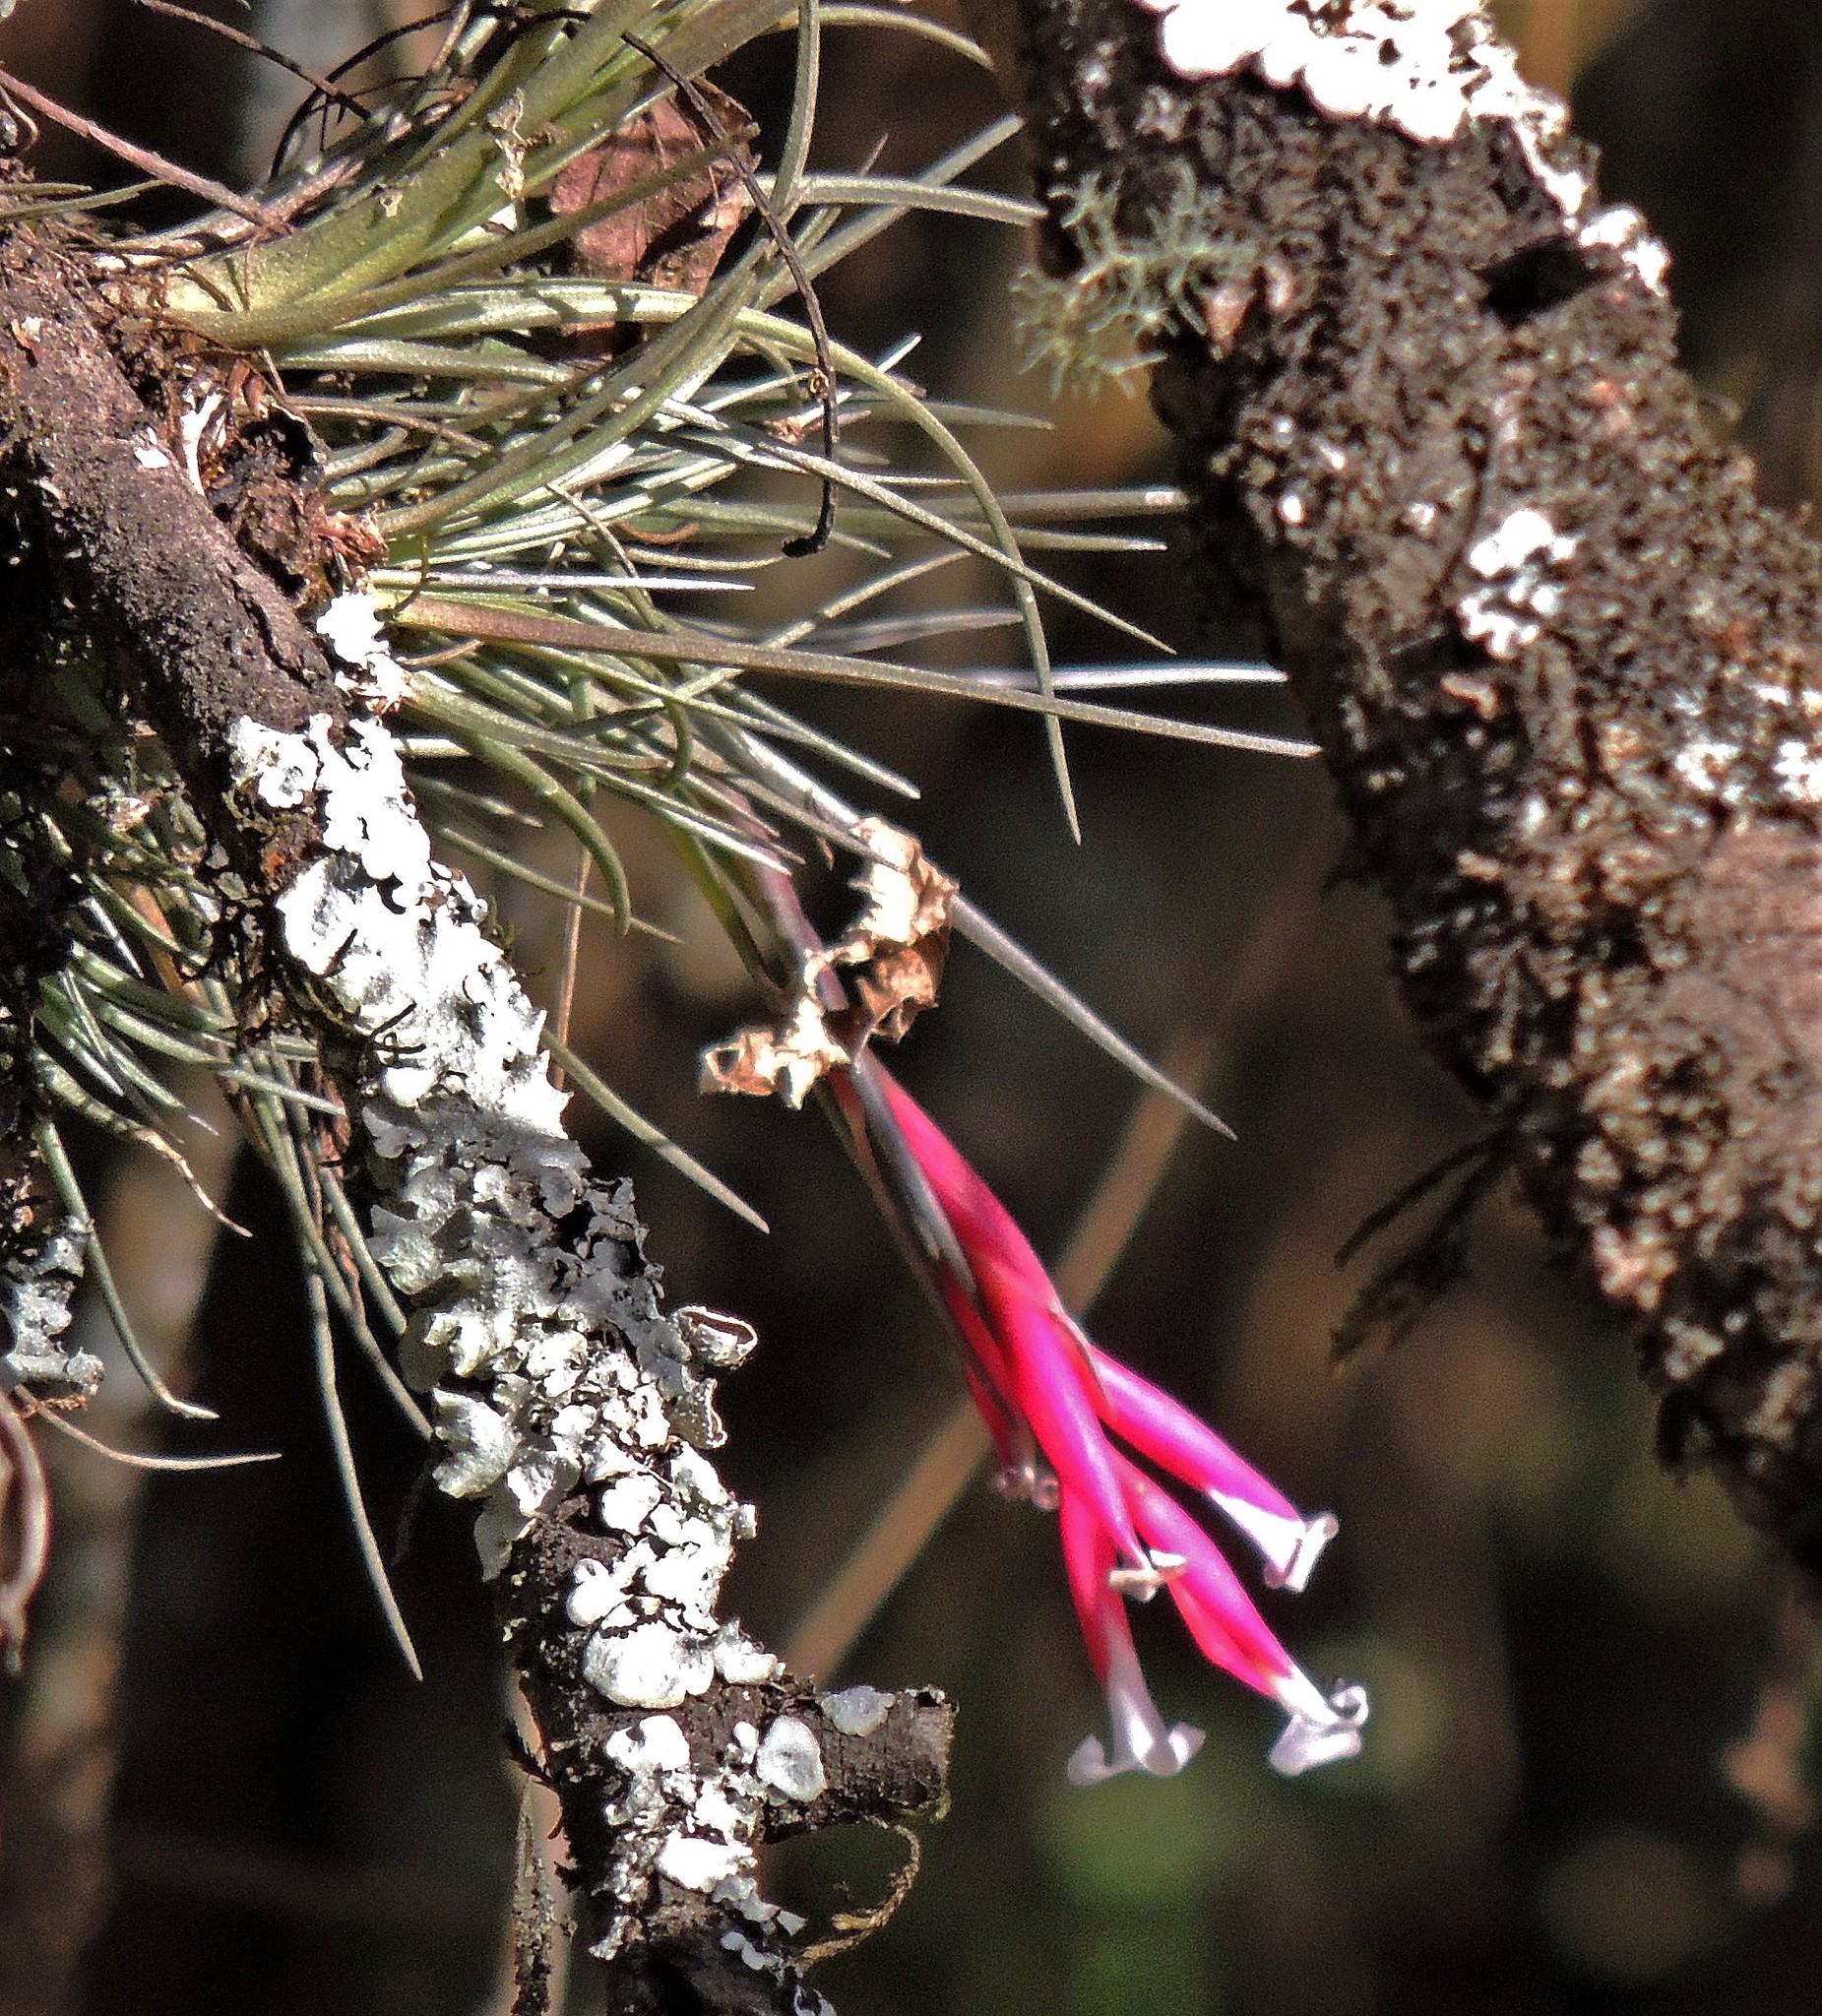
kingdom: Plantae
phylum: Tracheophyta
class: Liliopsida
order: Poales
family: Bromeliaceae
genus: Tillandsia
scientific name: Tillandsia tenuifolia
